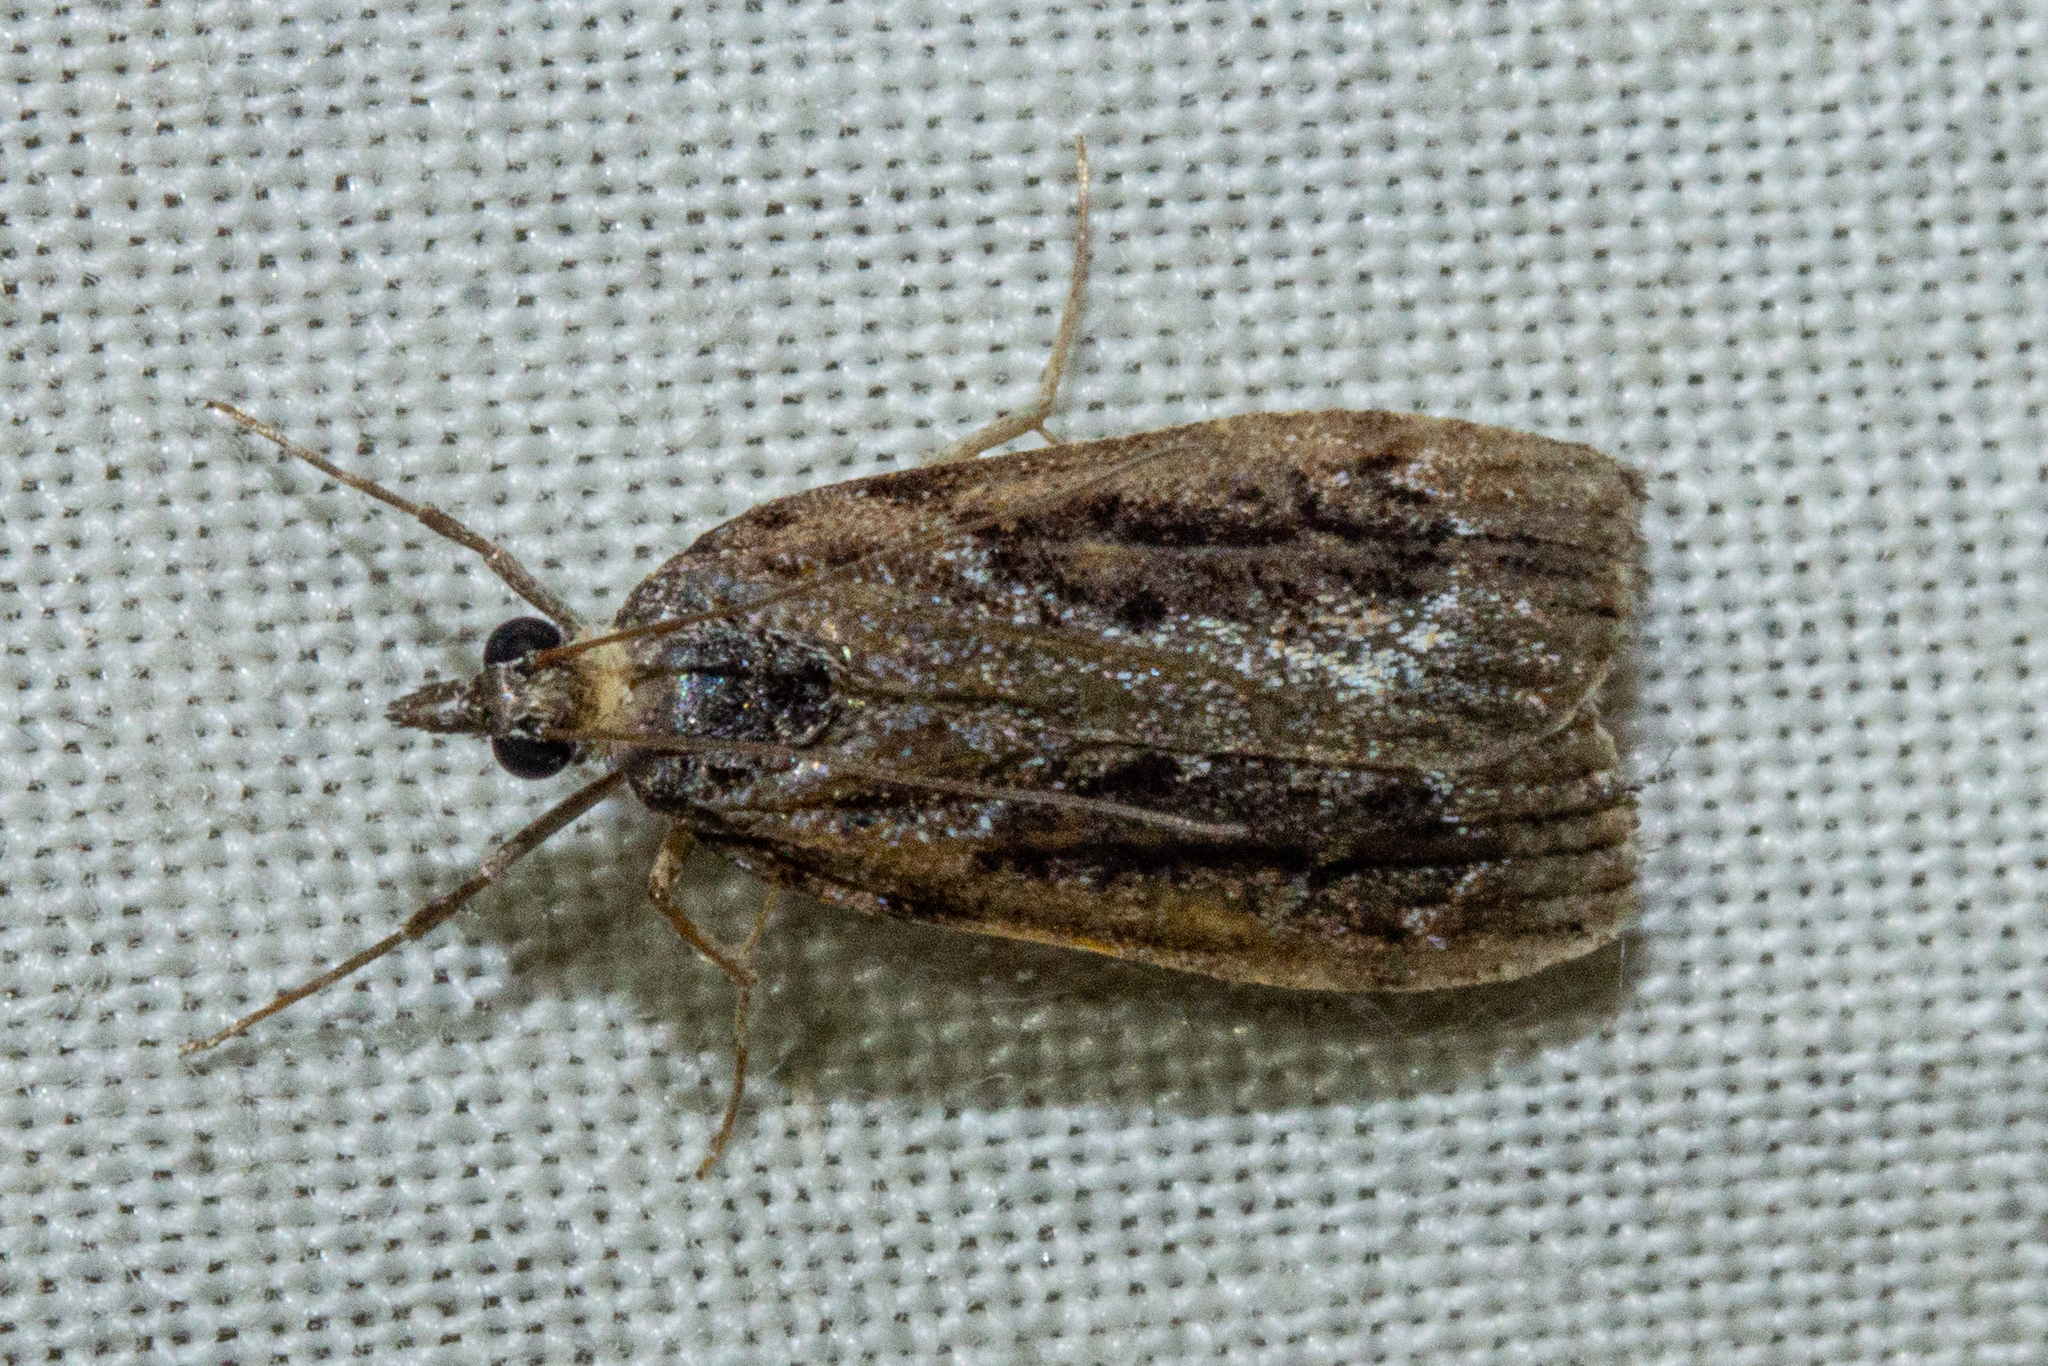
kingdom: Animalia
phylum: Arthropoda
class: Insecta
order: Lepidoptera
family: Crambidae
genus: Eudonia
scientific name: Eudonia submarginalis
